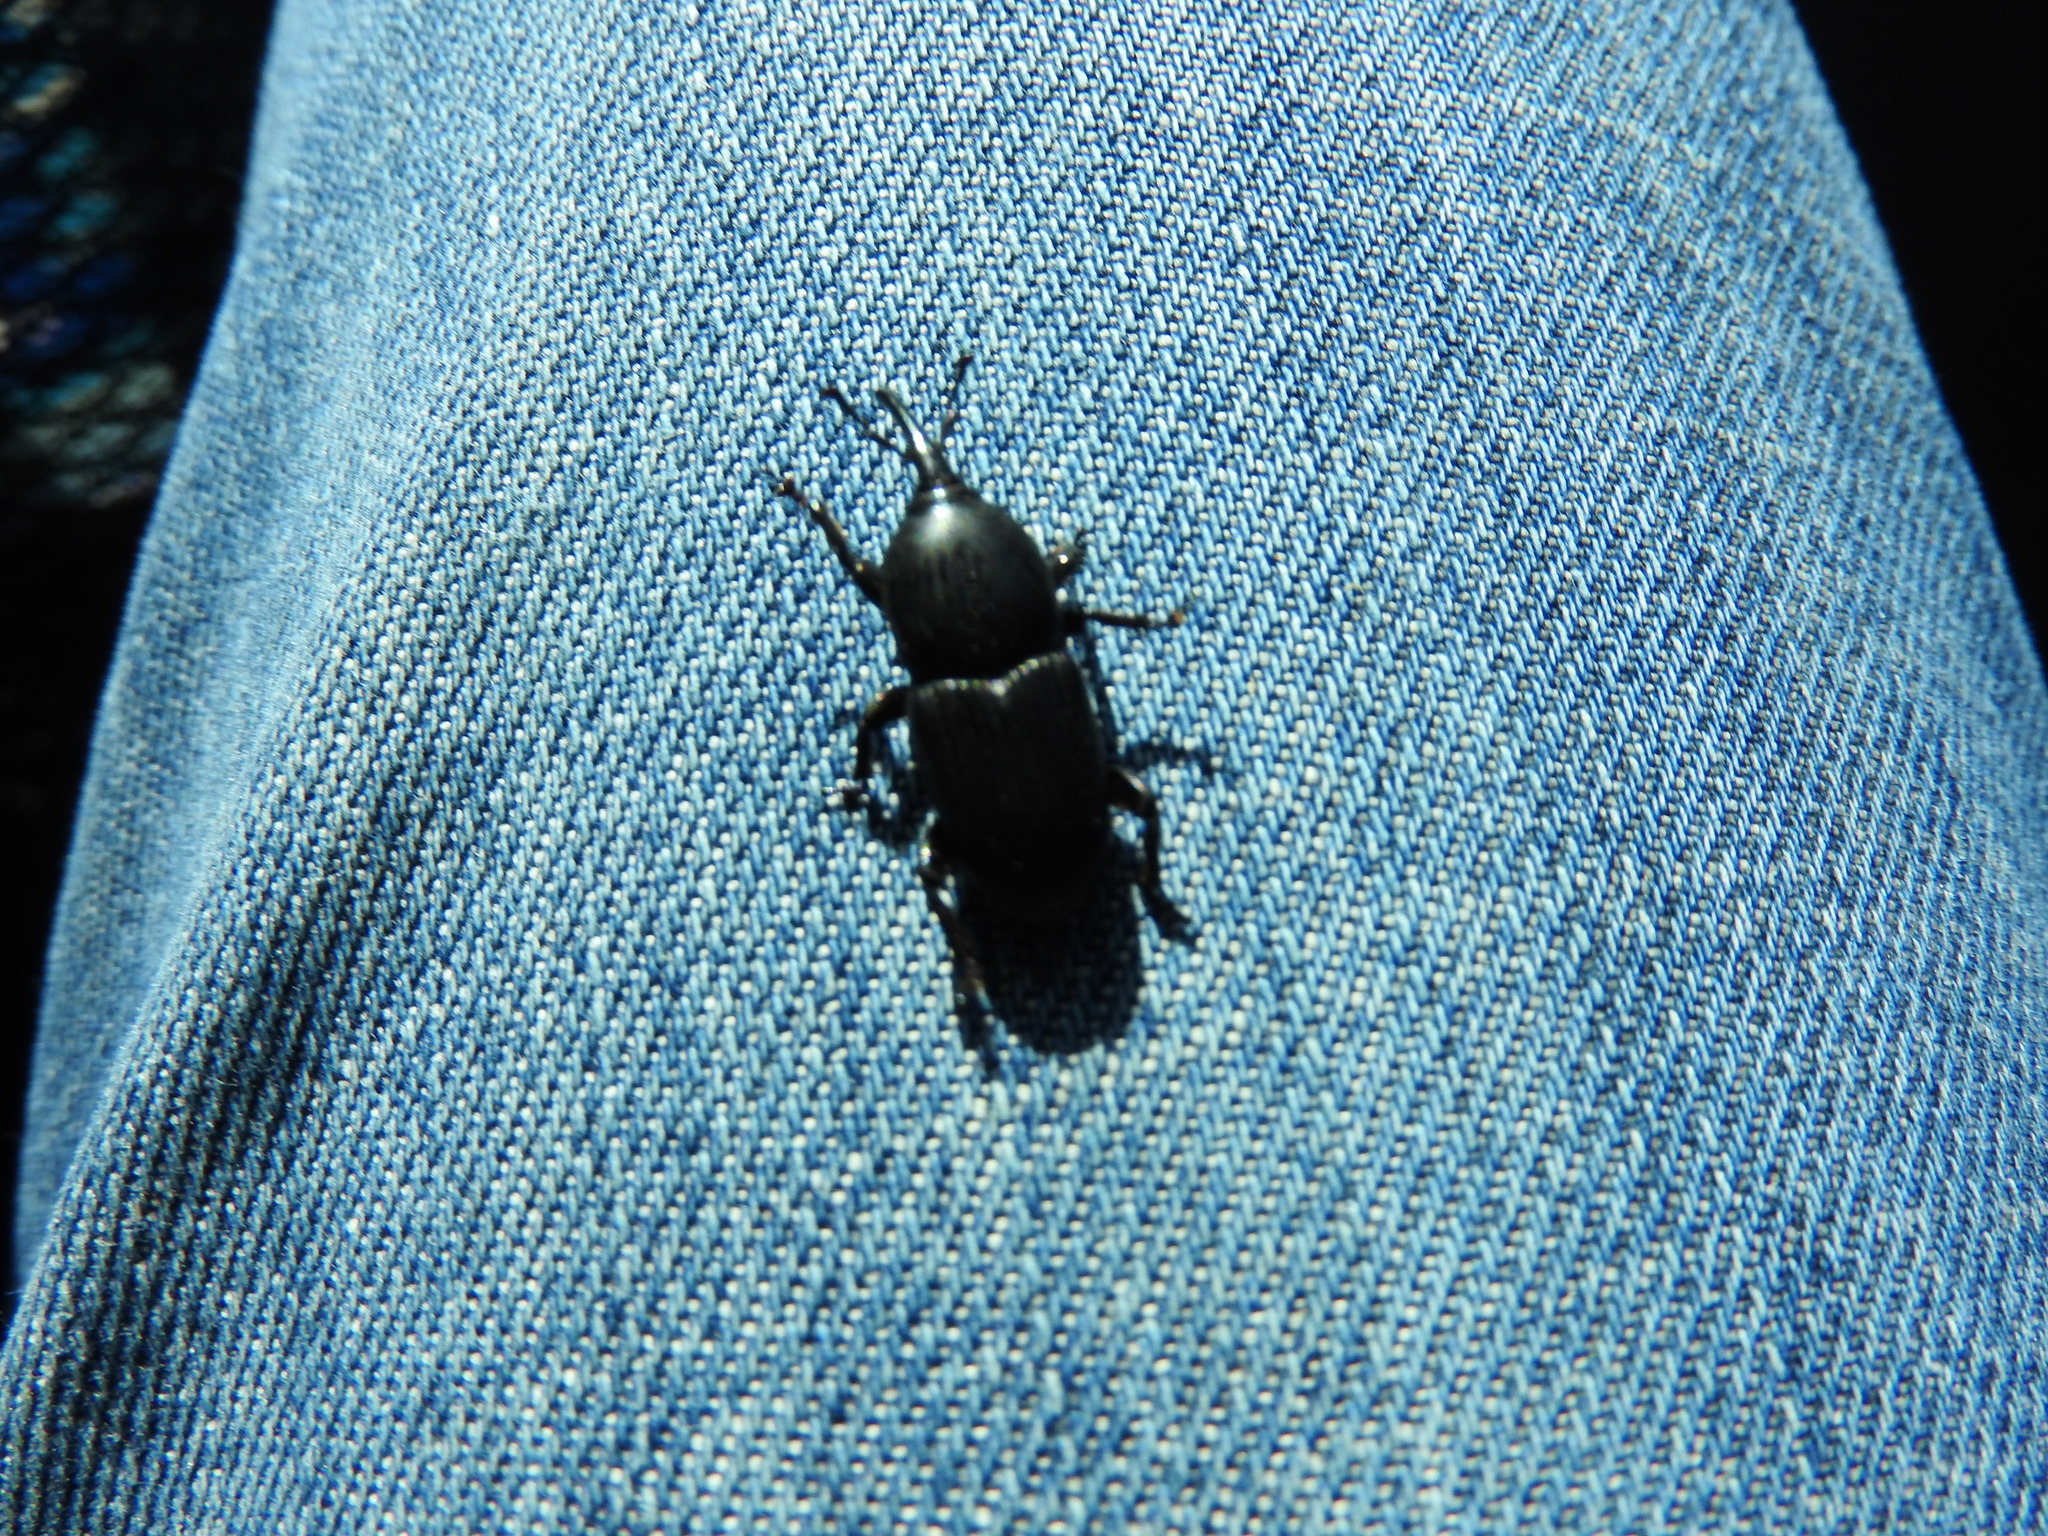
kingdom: Animalia
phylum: Arthropoda
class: Insecta
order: Coleoptera
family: Dryophthoridae
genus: Scyphophorus
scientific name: Scyphophorus acupunctatus
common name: Weevil
